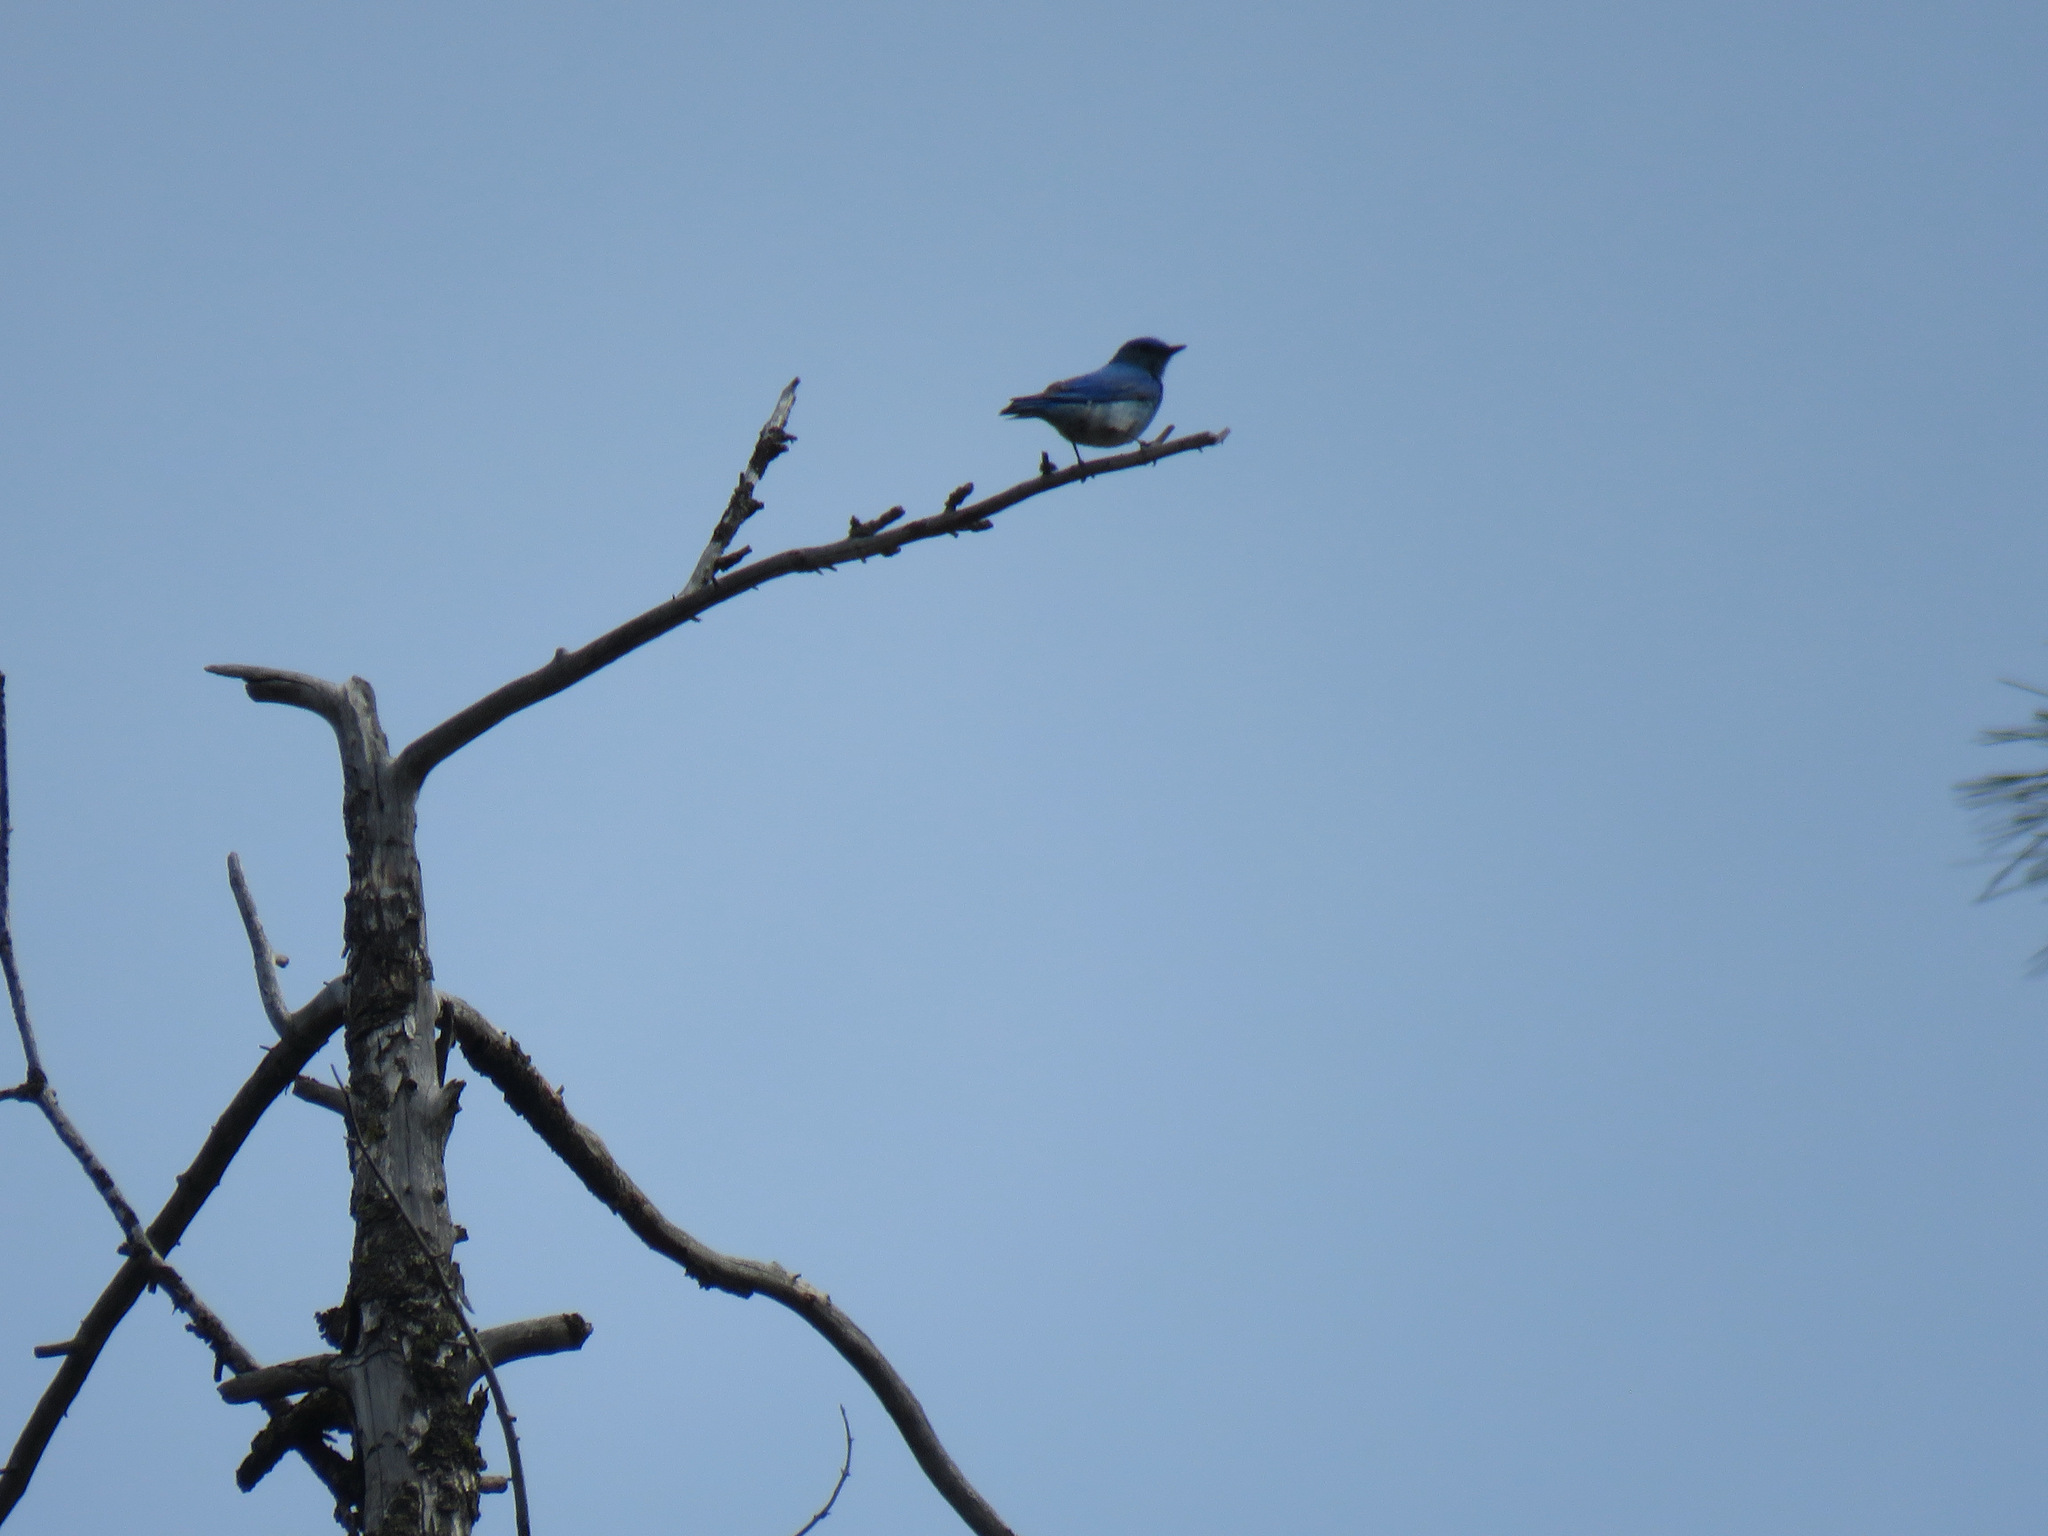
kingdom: Animalia
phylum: Chordata
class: Aves
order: Passeriformes
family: Turdidae
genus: Sialia
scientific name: Sialia currucoides
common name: Mountain bluebird
